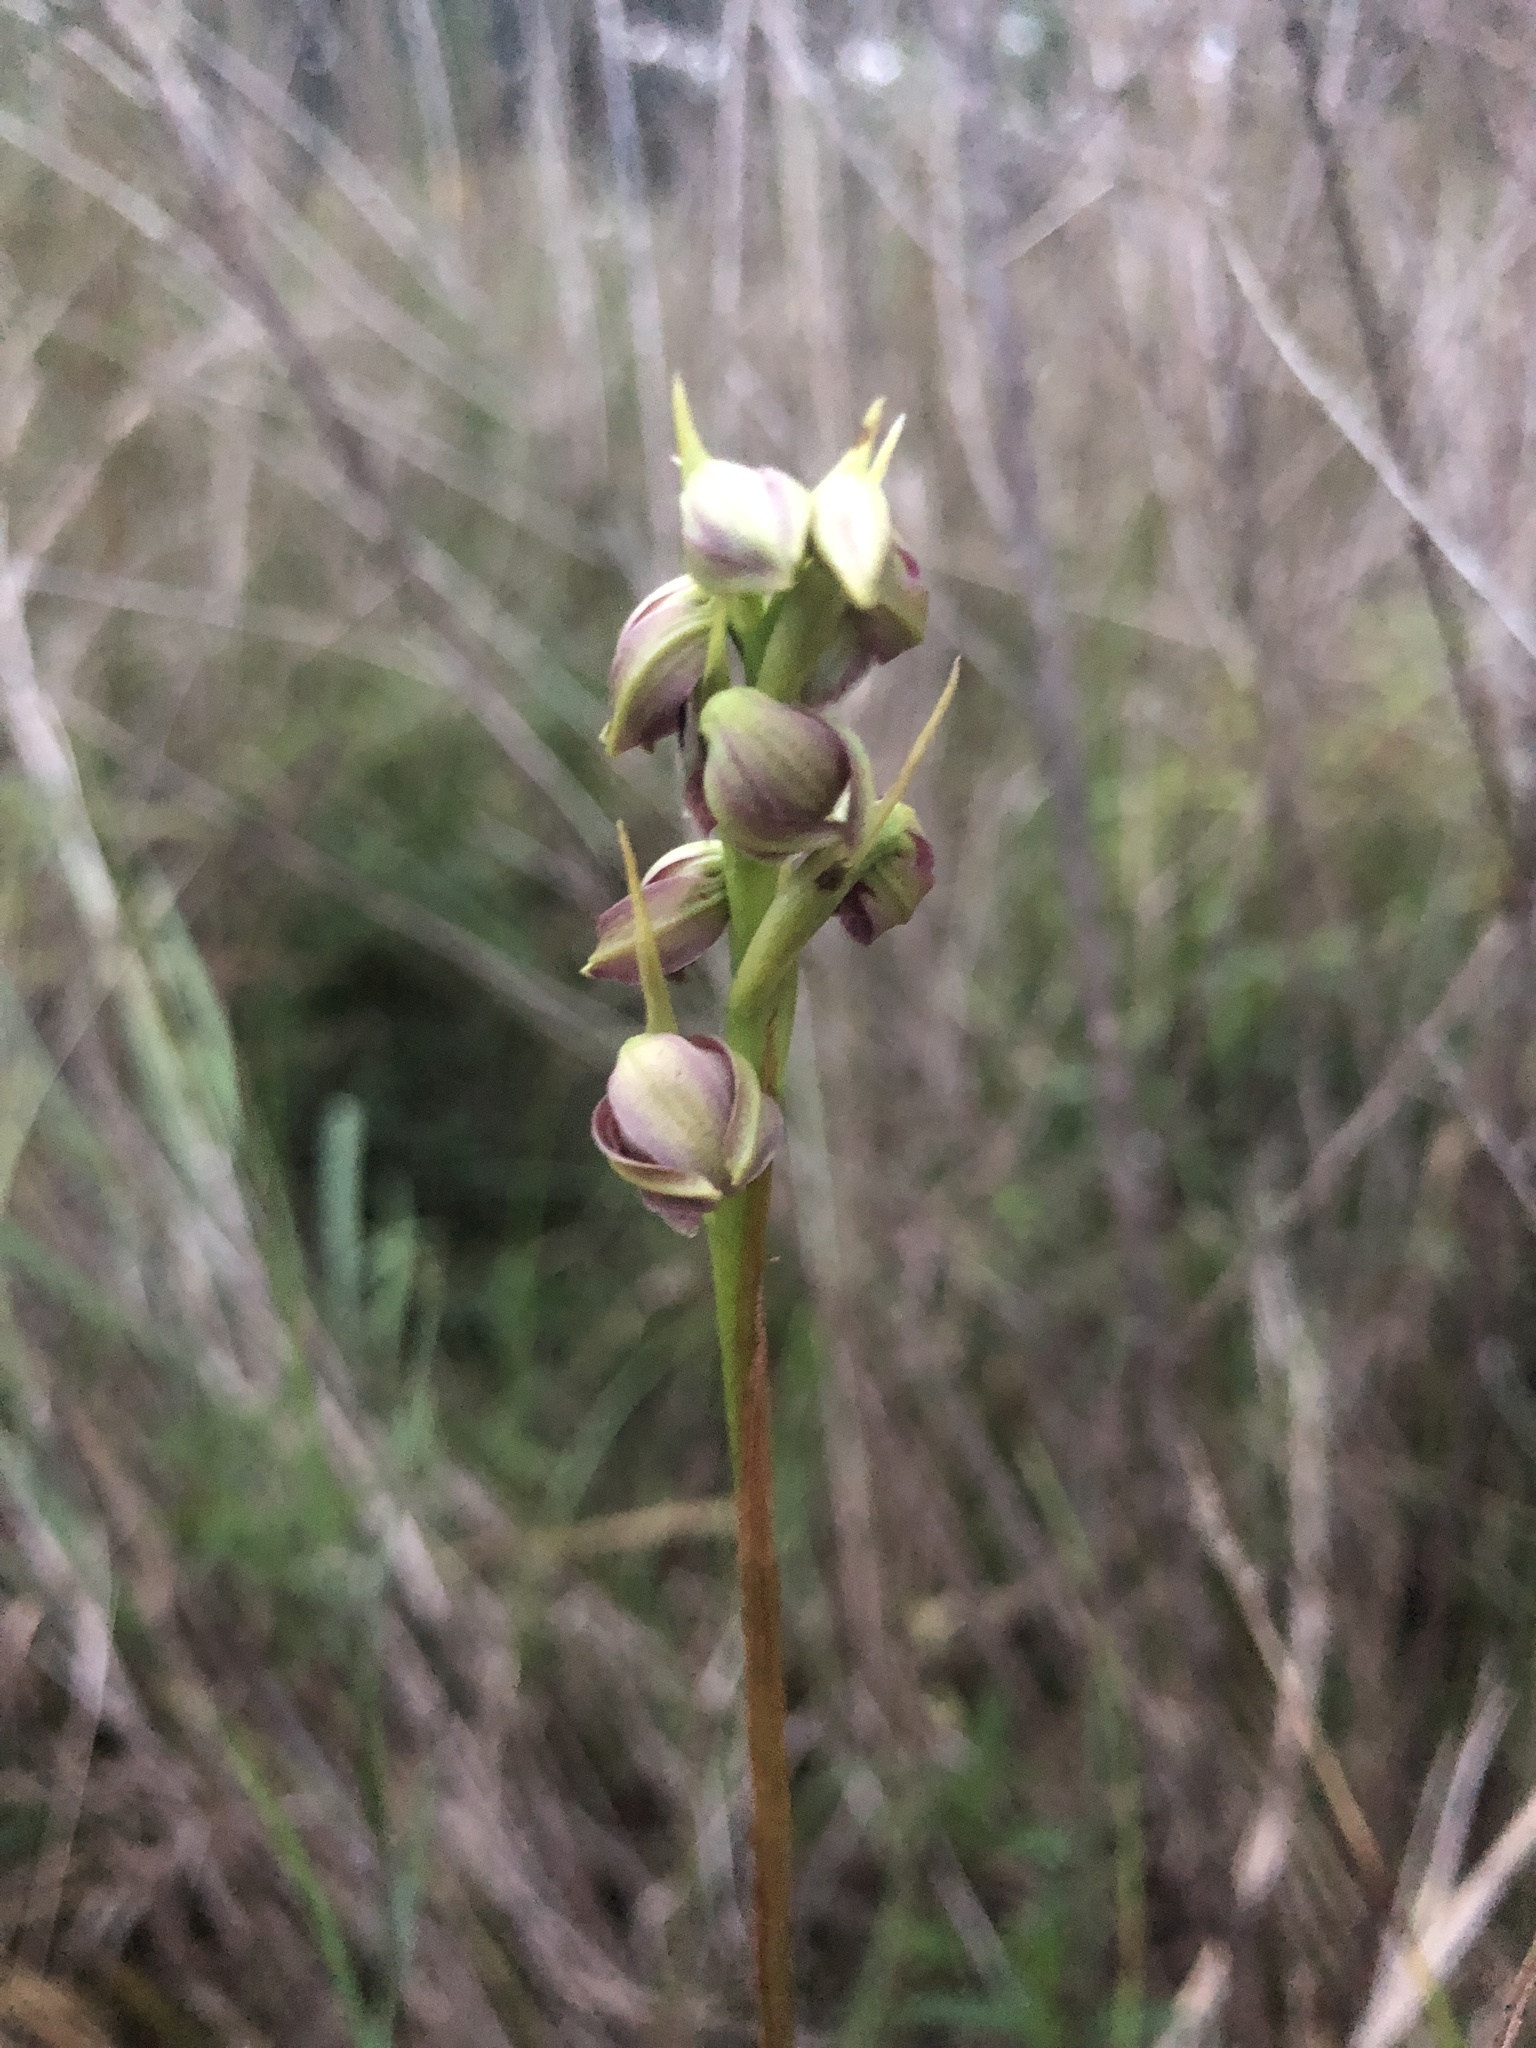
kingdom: Plantae
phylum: Tracheophyta
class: Liliopsida
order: Asparagales
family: Orchidaceae
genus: Eulophia
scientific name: Eulophia ecristata
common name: Giant orchid
